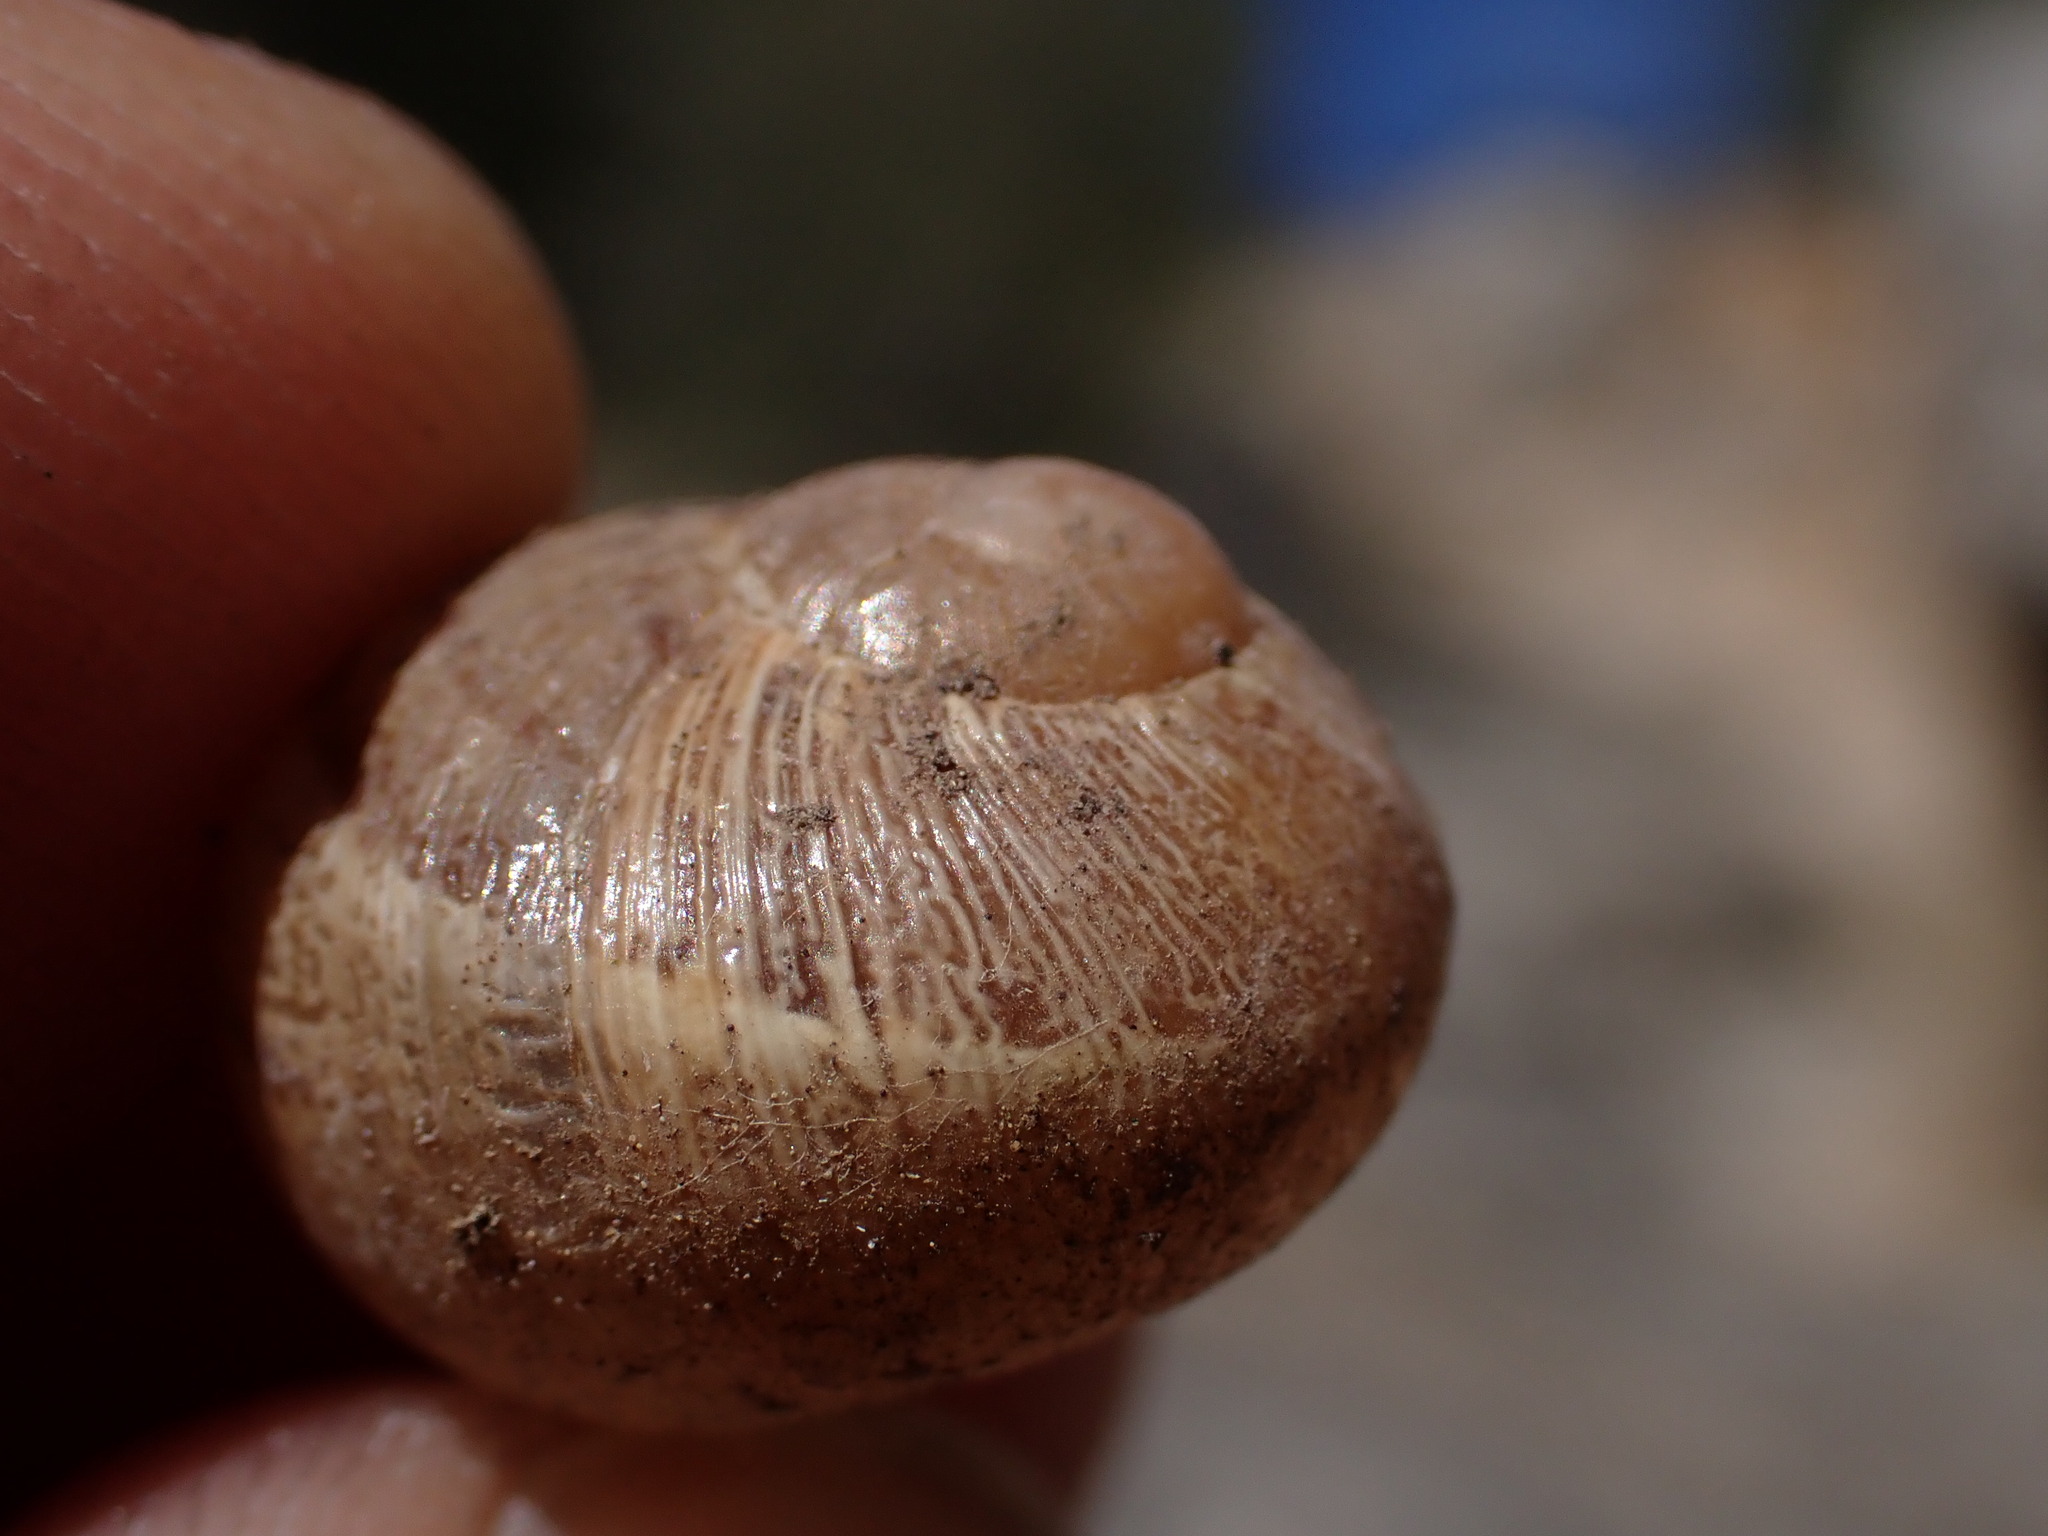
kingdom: Animalia
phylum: Mollusca
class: Gastropoda
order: Stylommatophora
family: Helicidae
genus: Cornu
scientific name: Cornu aspersum
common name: Brown garden snail
